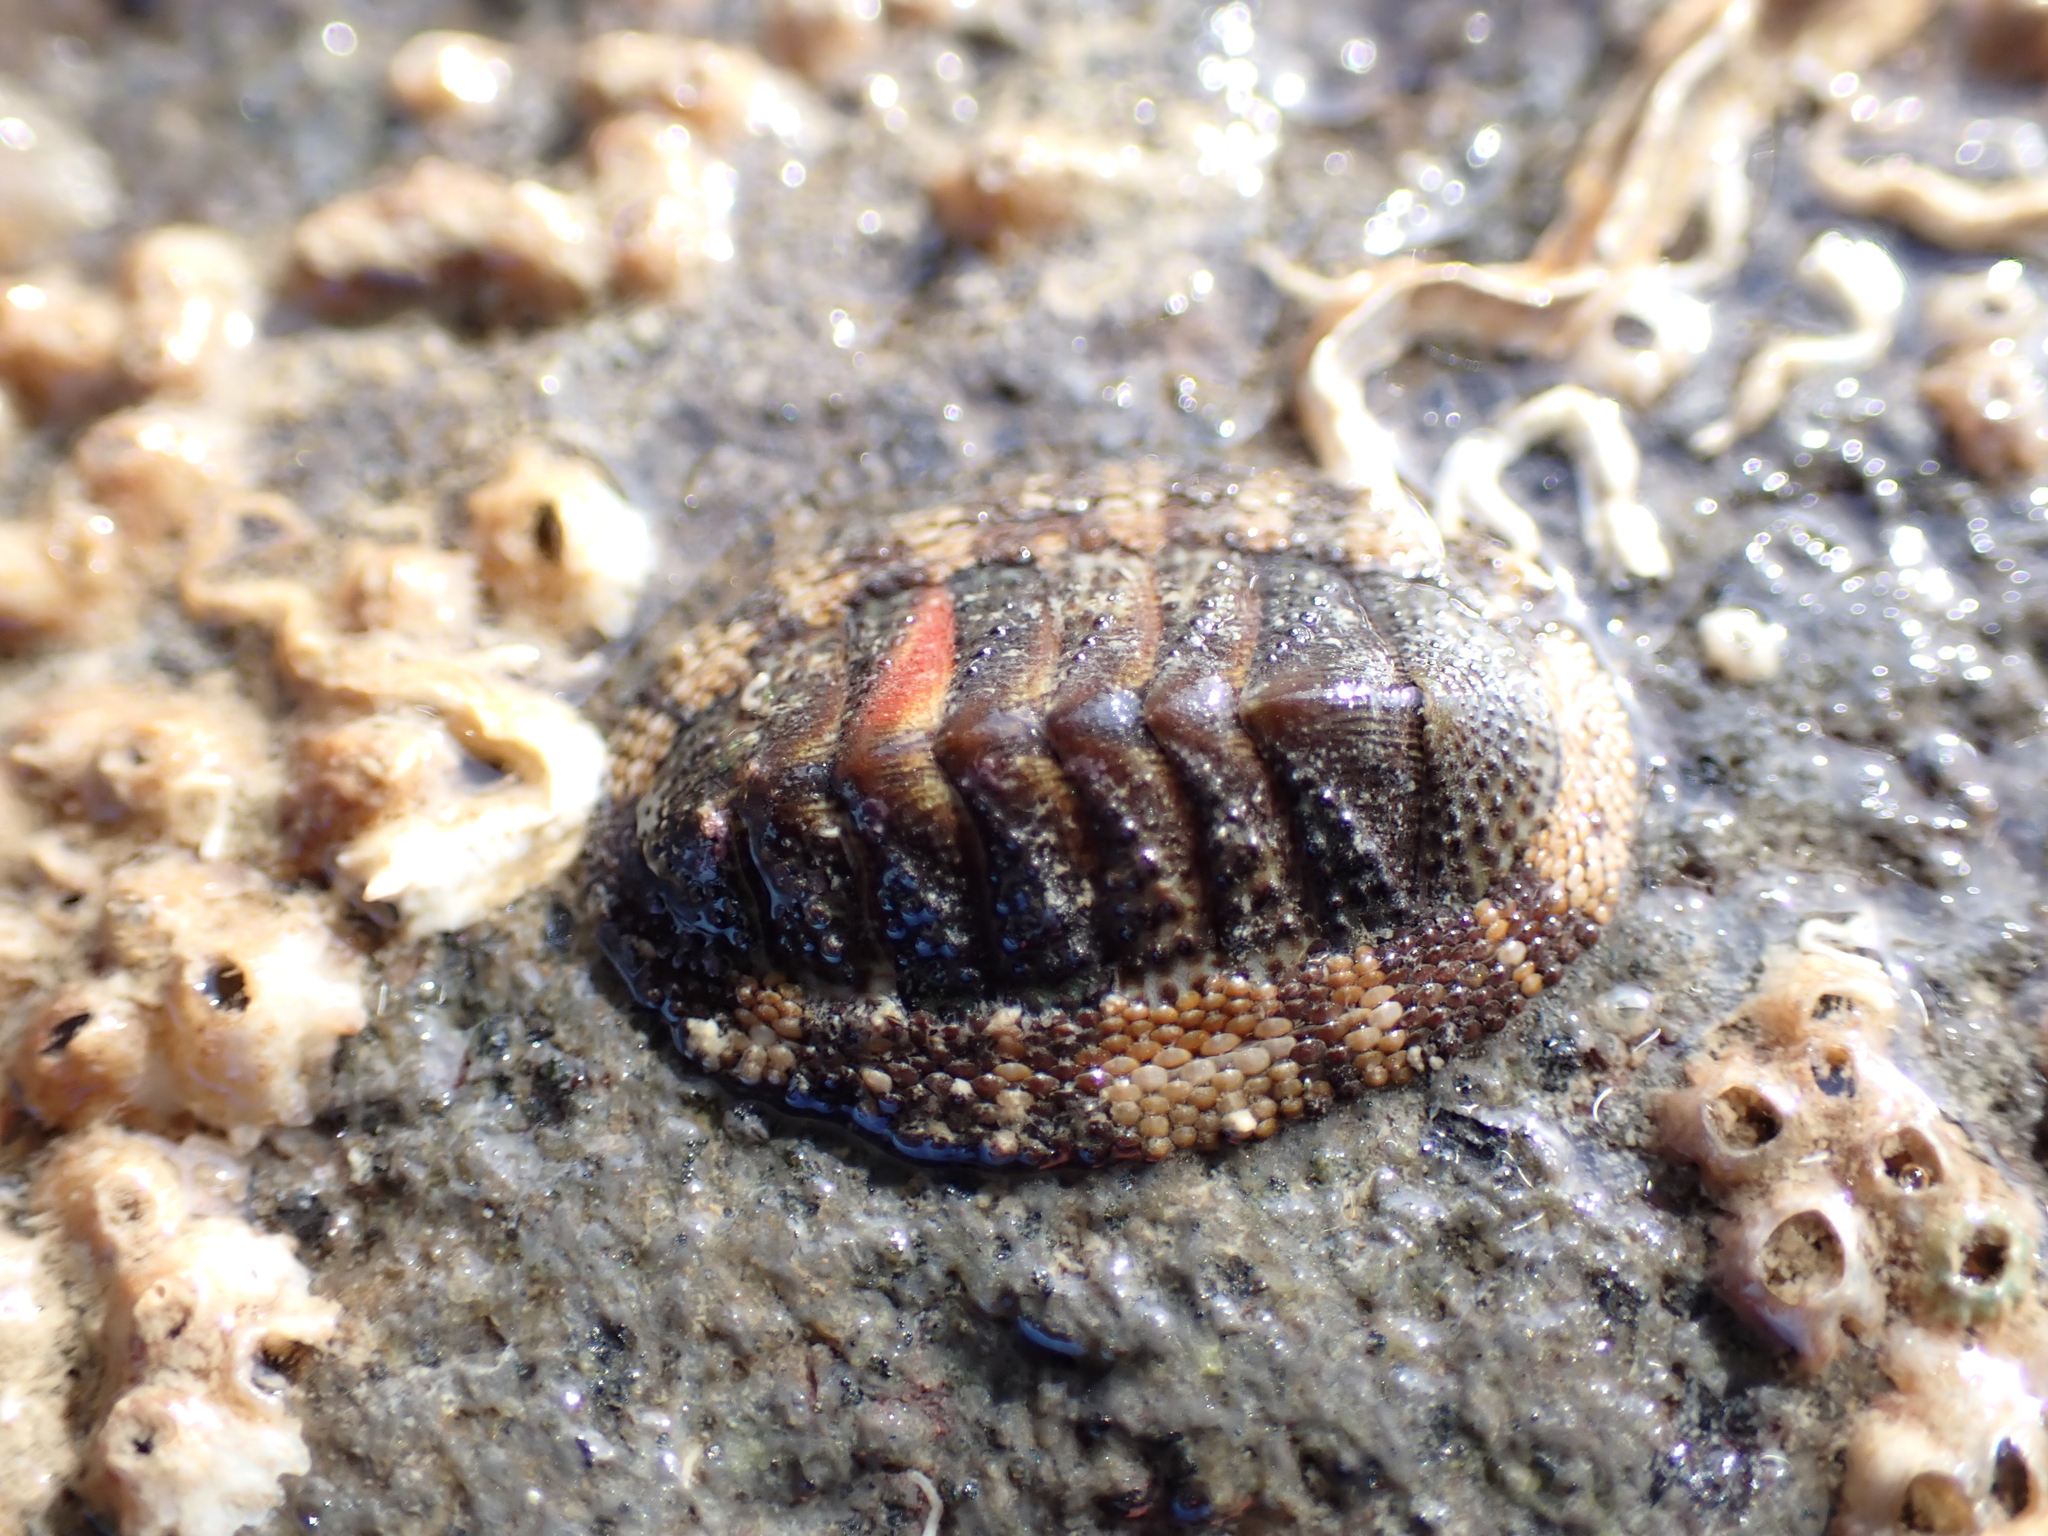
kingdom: Animalia
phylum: Mollusca
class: Polyplacophora
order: Chitonida
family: Chitonidae
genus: Sypharochiton
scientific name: Sypharochiton pelliserpentis
